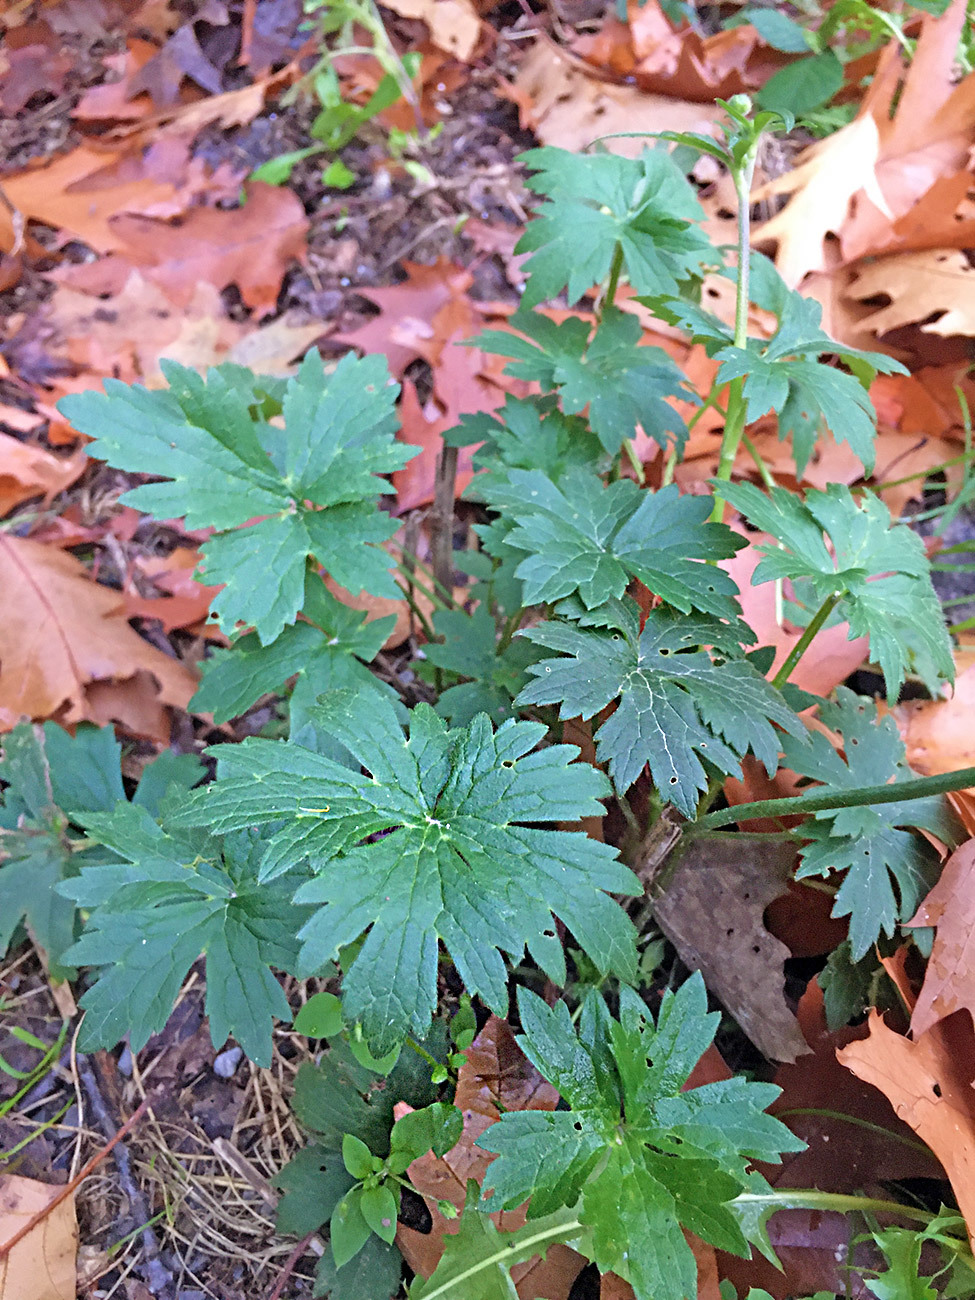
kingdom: Plantae
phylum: Tracheophyta
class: Magnoliopsida
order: Ranunculales
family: Ranunculaceae
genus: Ranunculus
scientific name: Ranunculus acris
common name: Meadow buttercup
